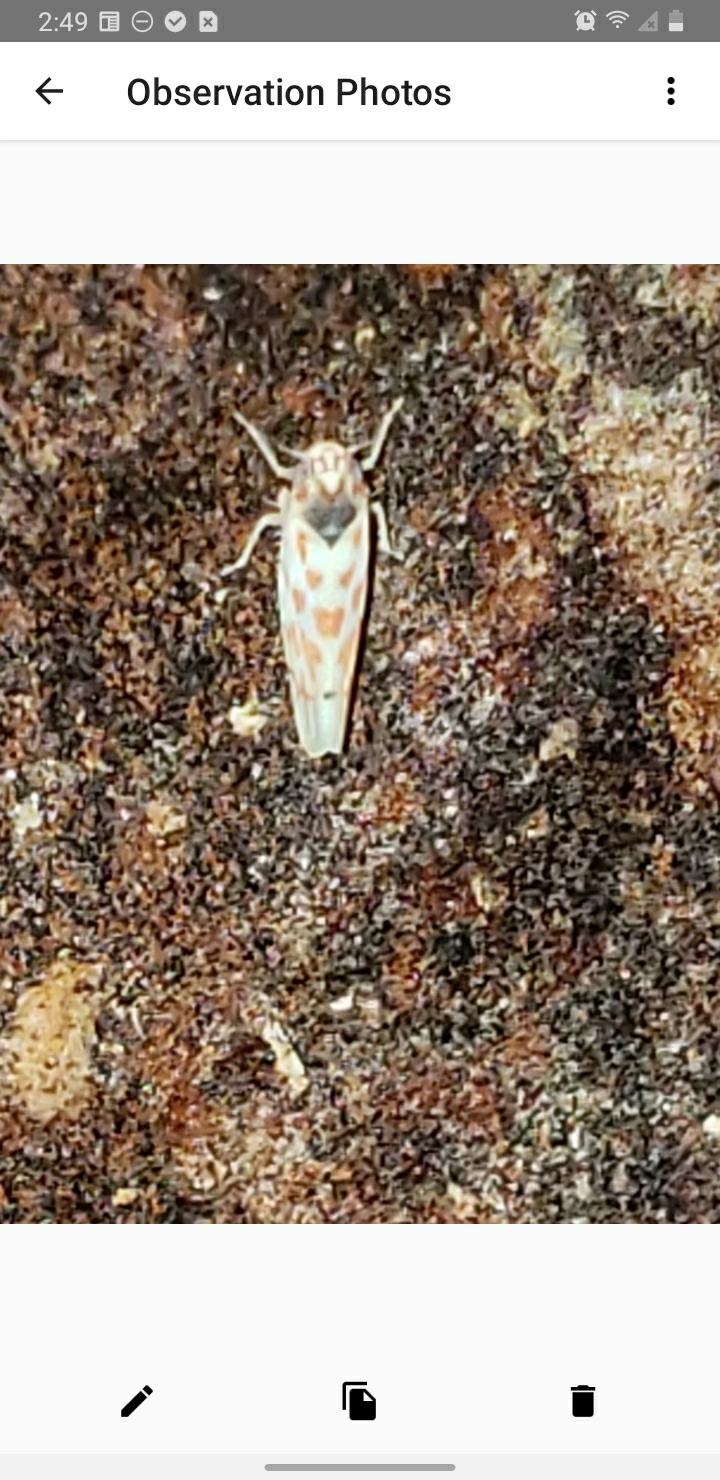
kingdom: Animalia
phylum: Arthropoda
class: Insecta
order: Hemiptera
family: Cicadellidae
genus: Eratoneura
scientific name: Eratoneura ardens
